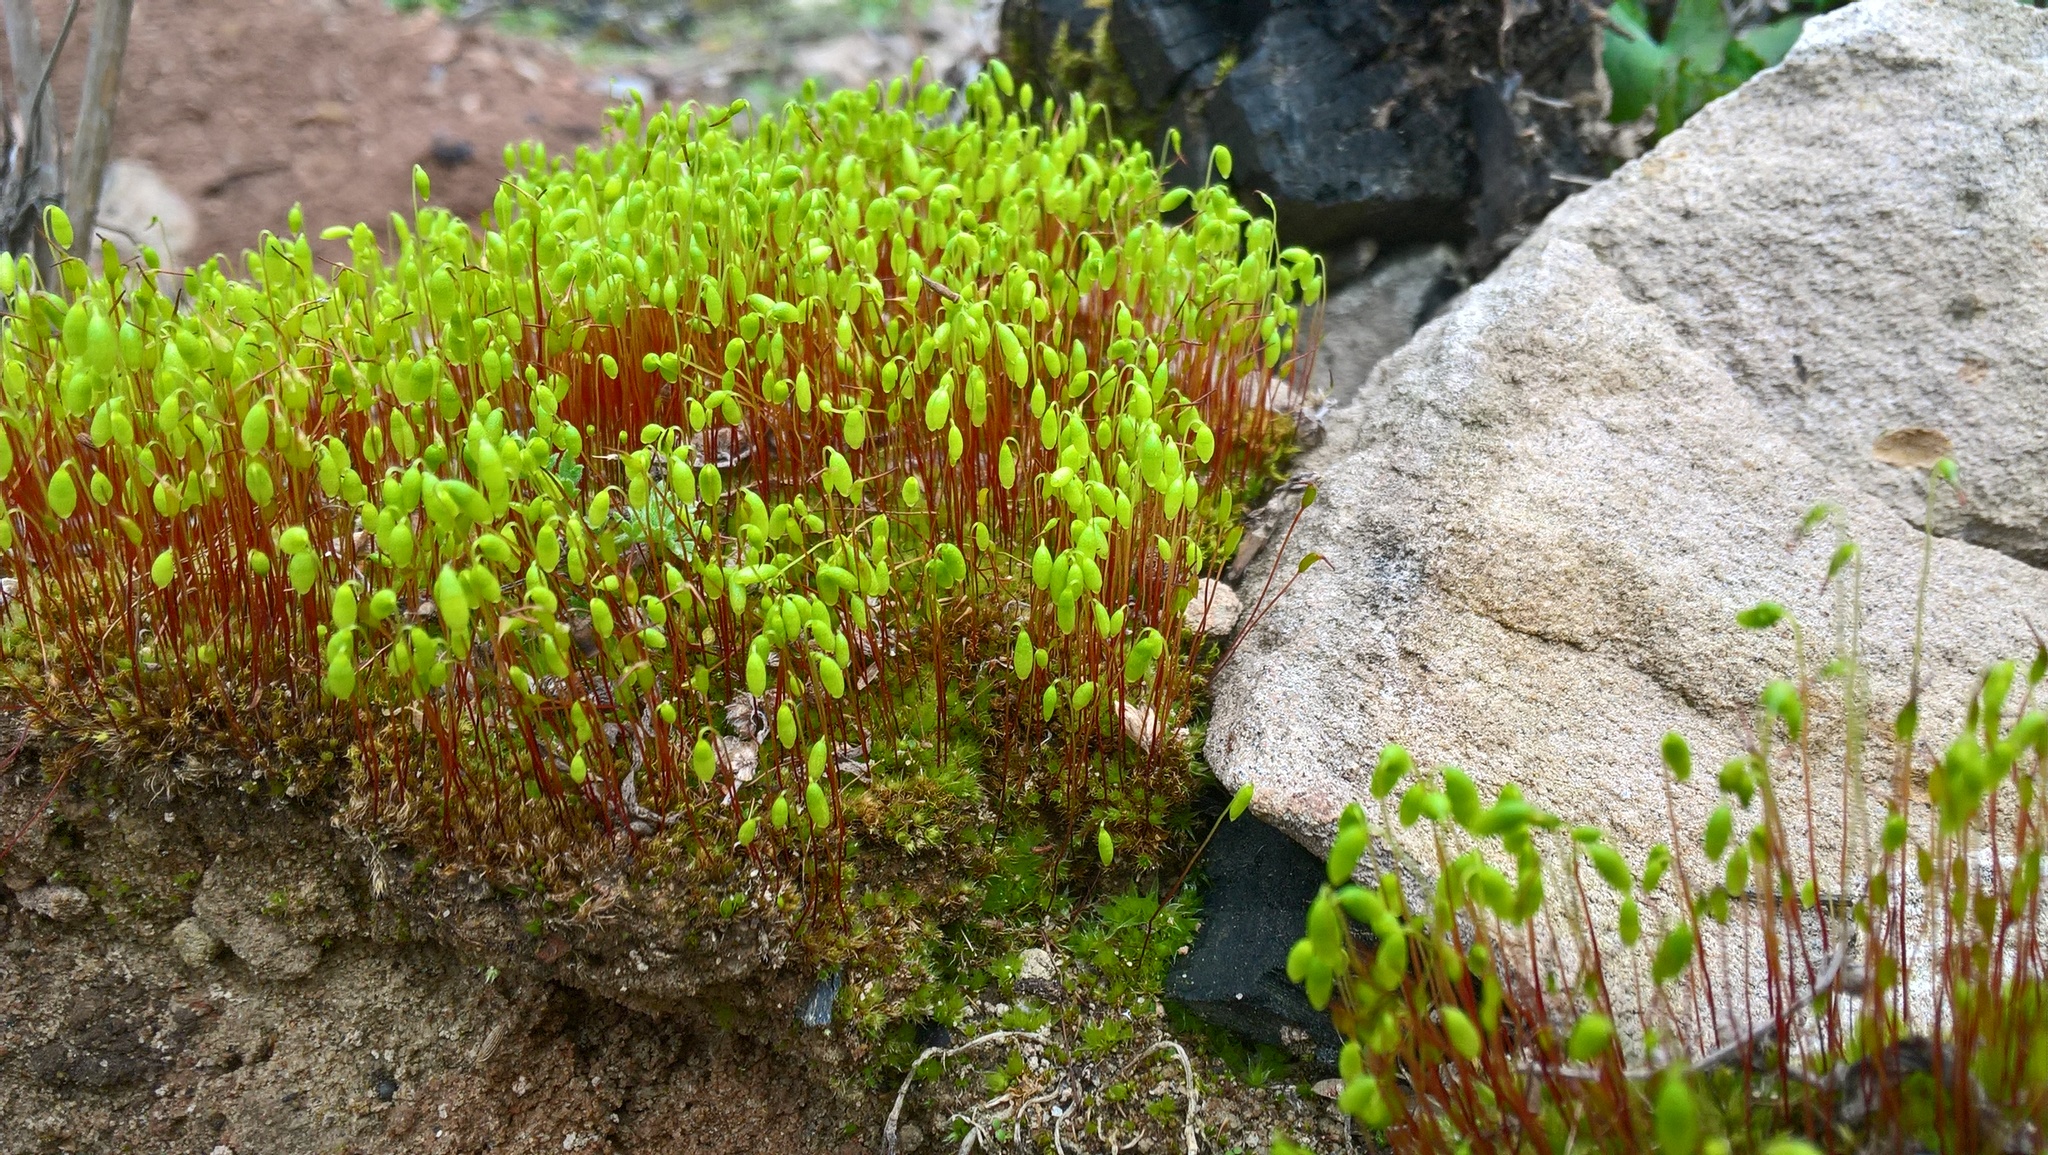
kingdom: Plantae
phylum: Bryophyta
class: Bryopsida
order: Bryales
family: Bryaceae
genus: Gemmabryum
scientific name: Gemmabryum caespiticium
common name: Handbell moss
